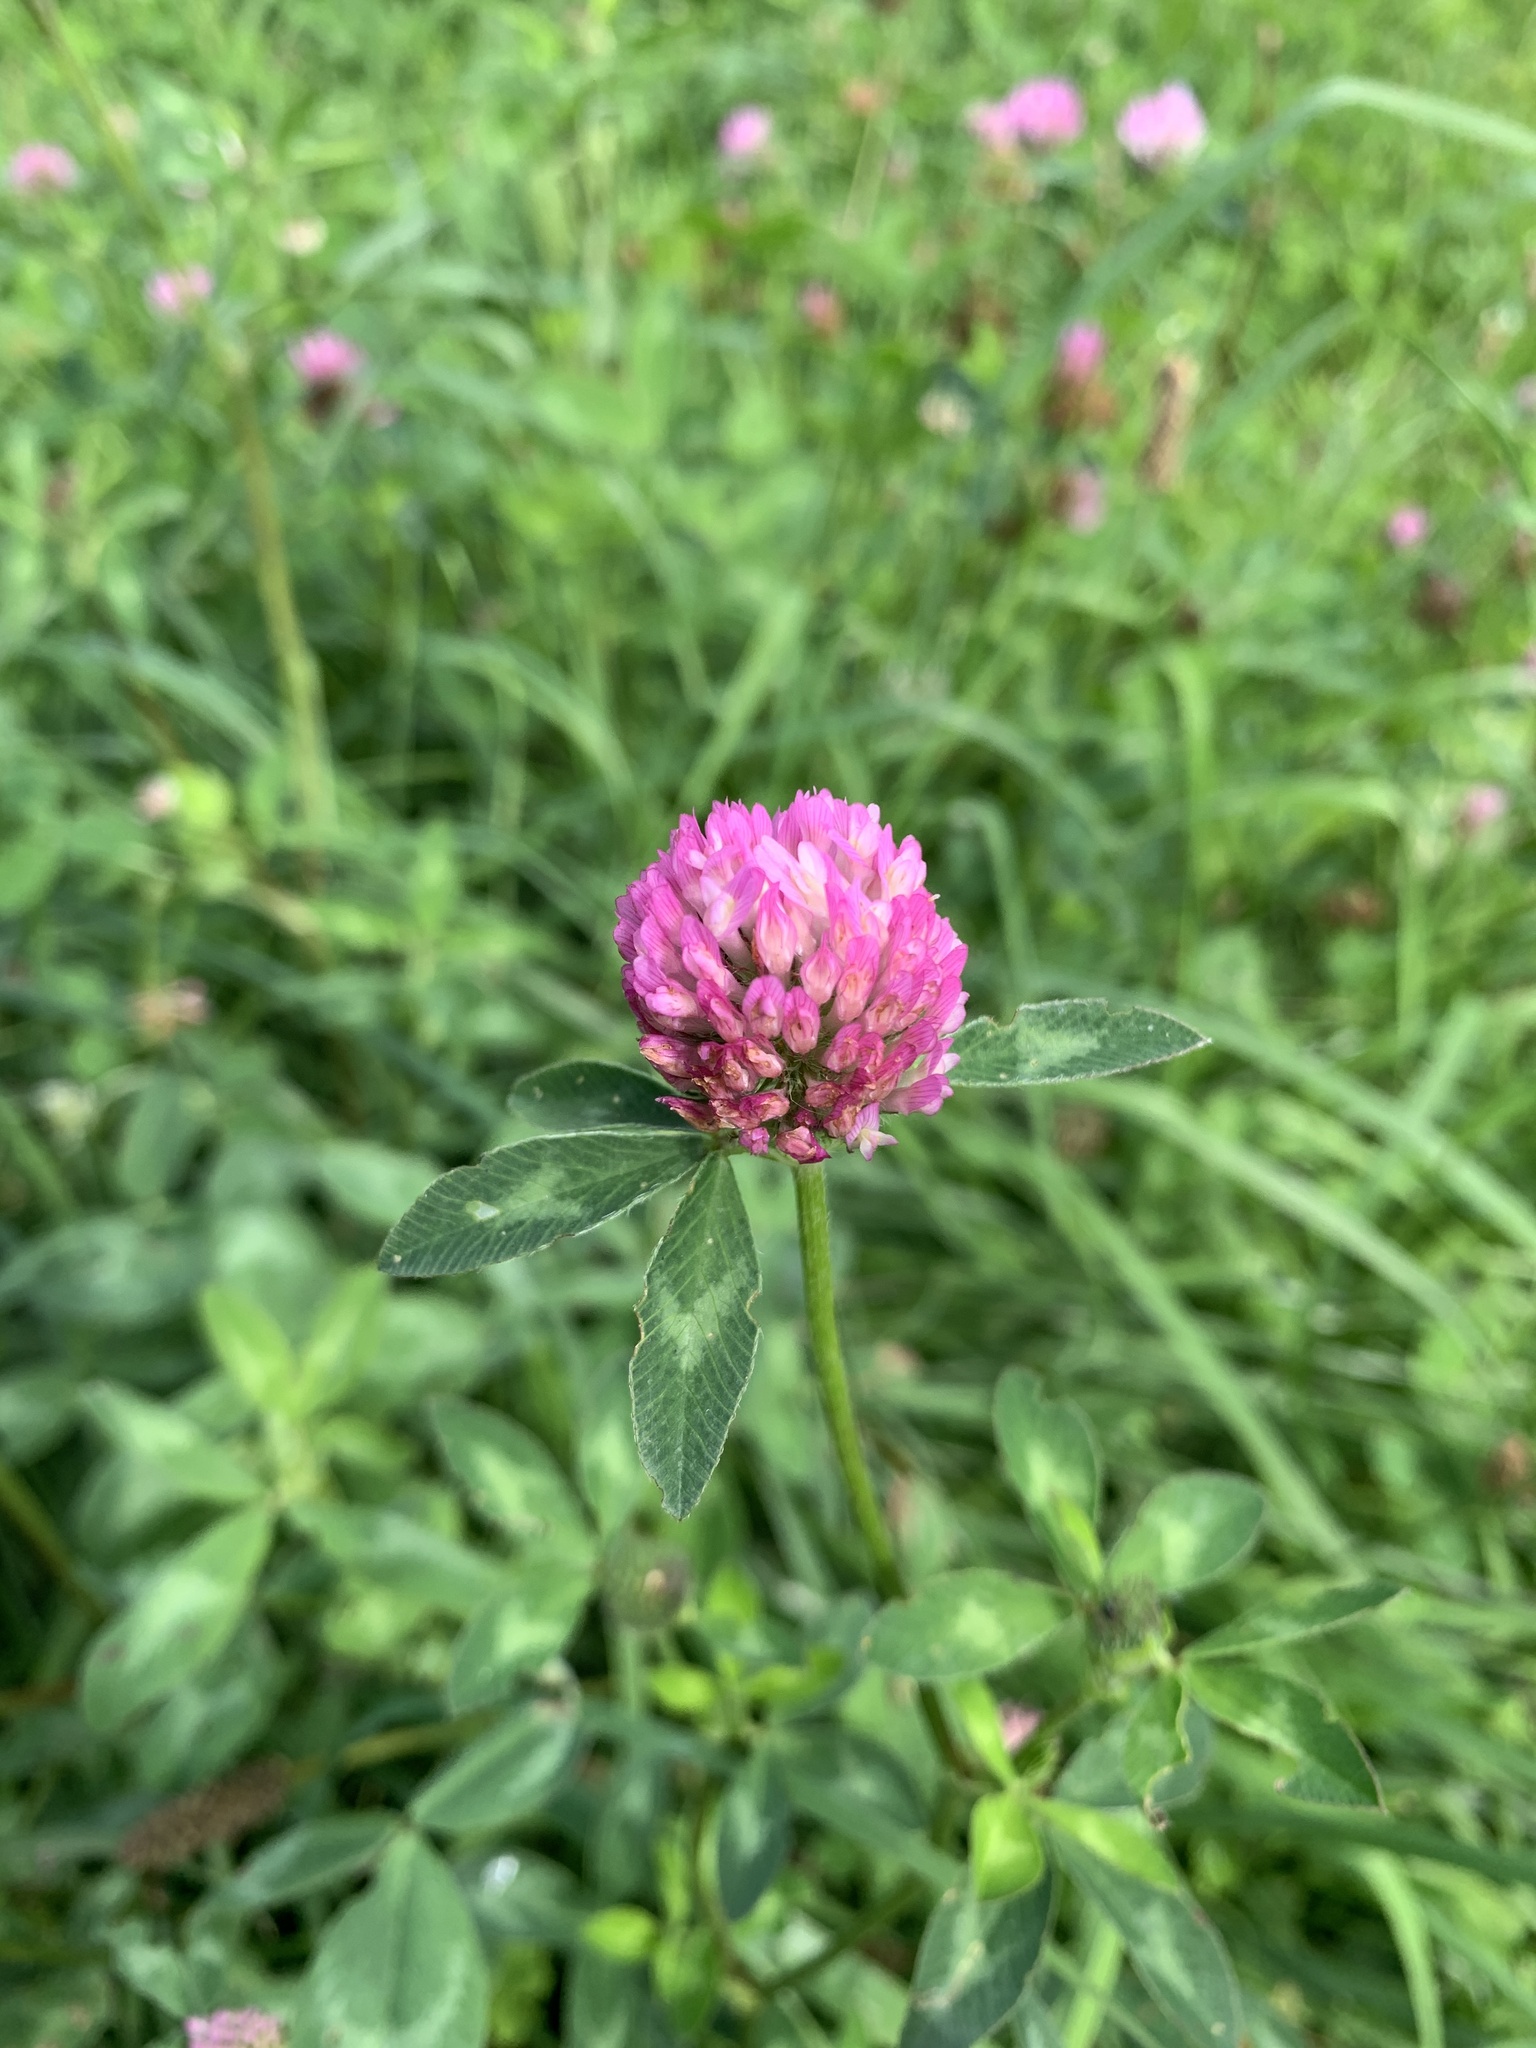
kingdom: Plantae
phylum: Tracheophyta
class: Magnoliopsida
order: Fabales
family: Fabaceae
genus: Trifolium
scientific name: Trifolium pratense
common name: Red clover
